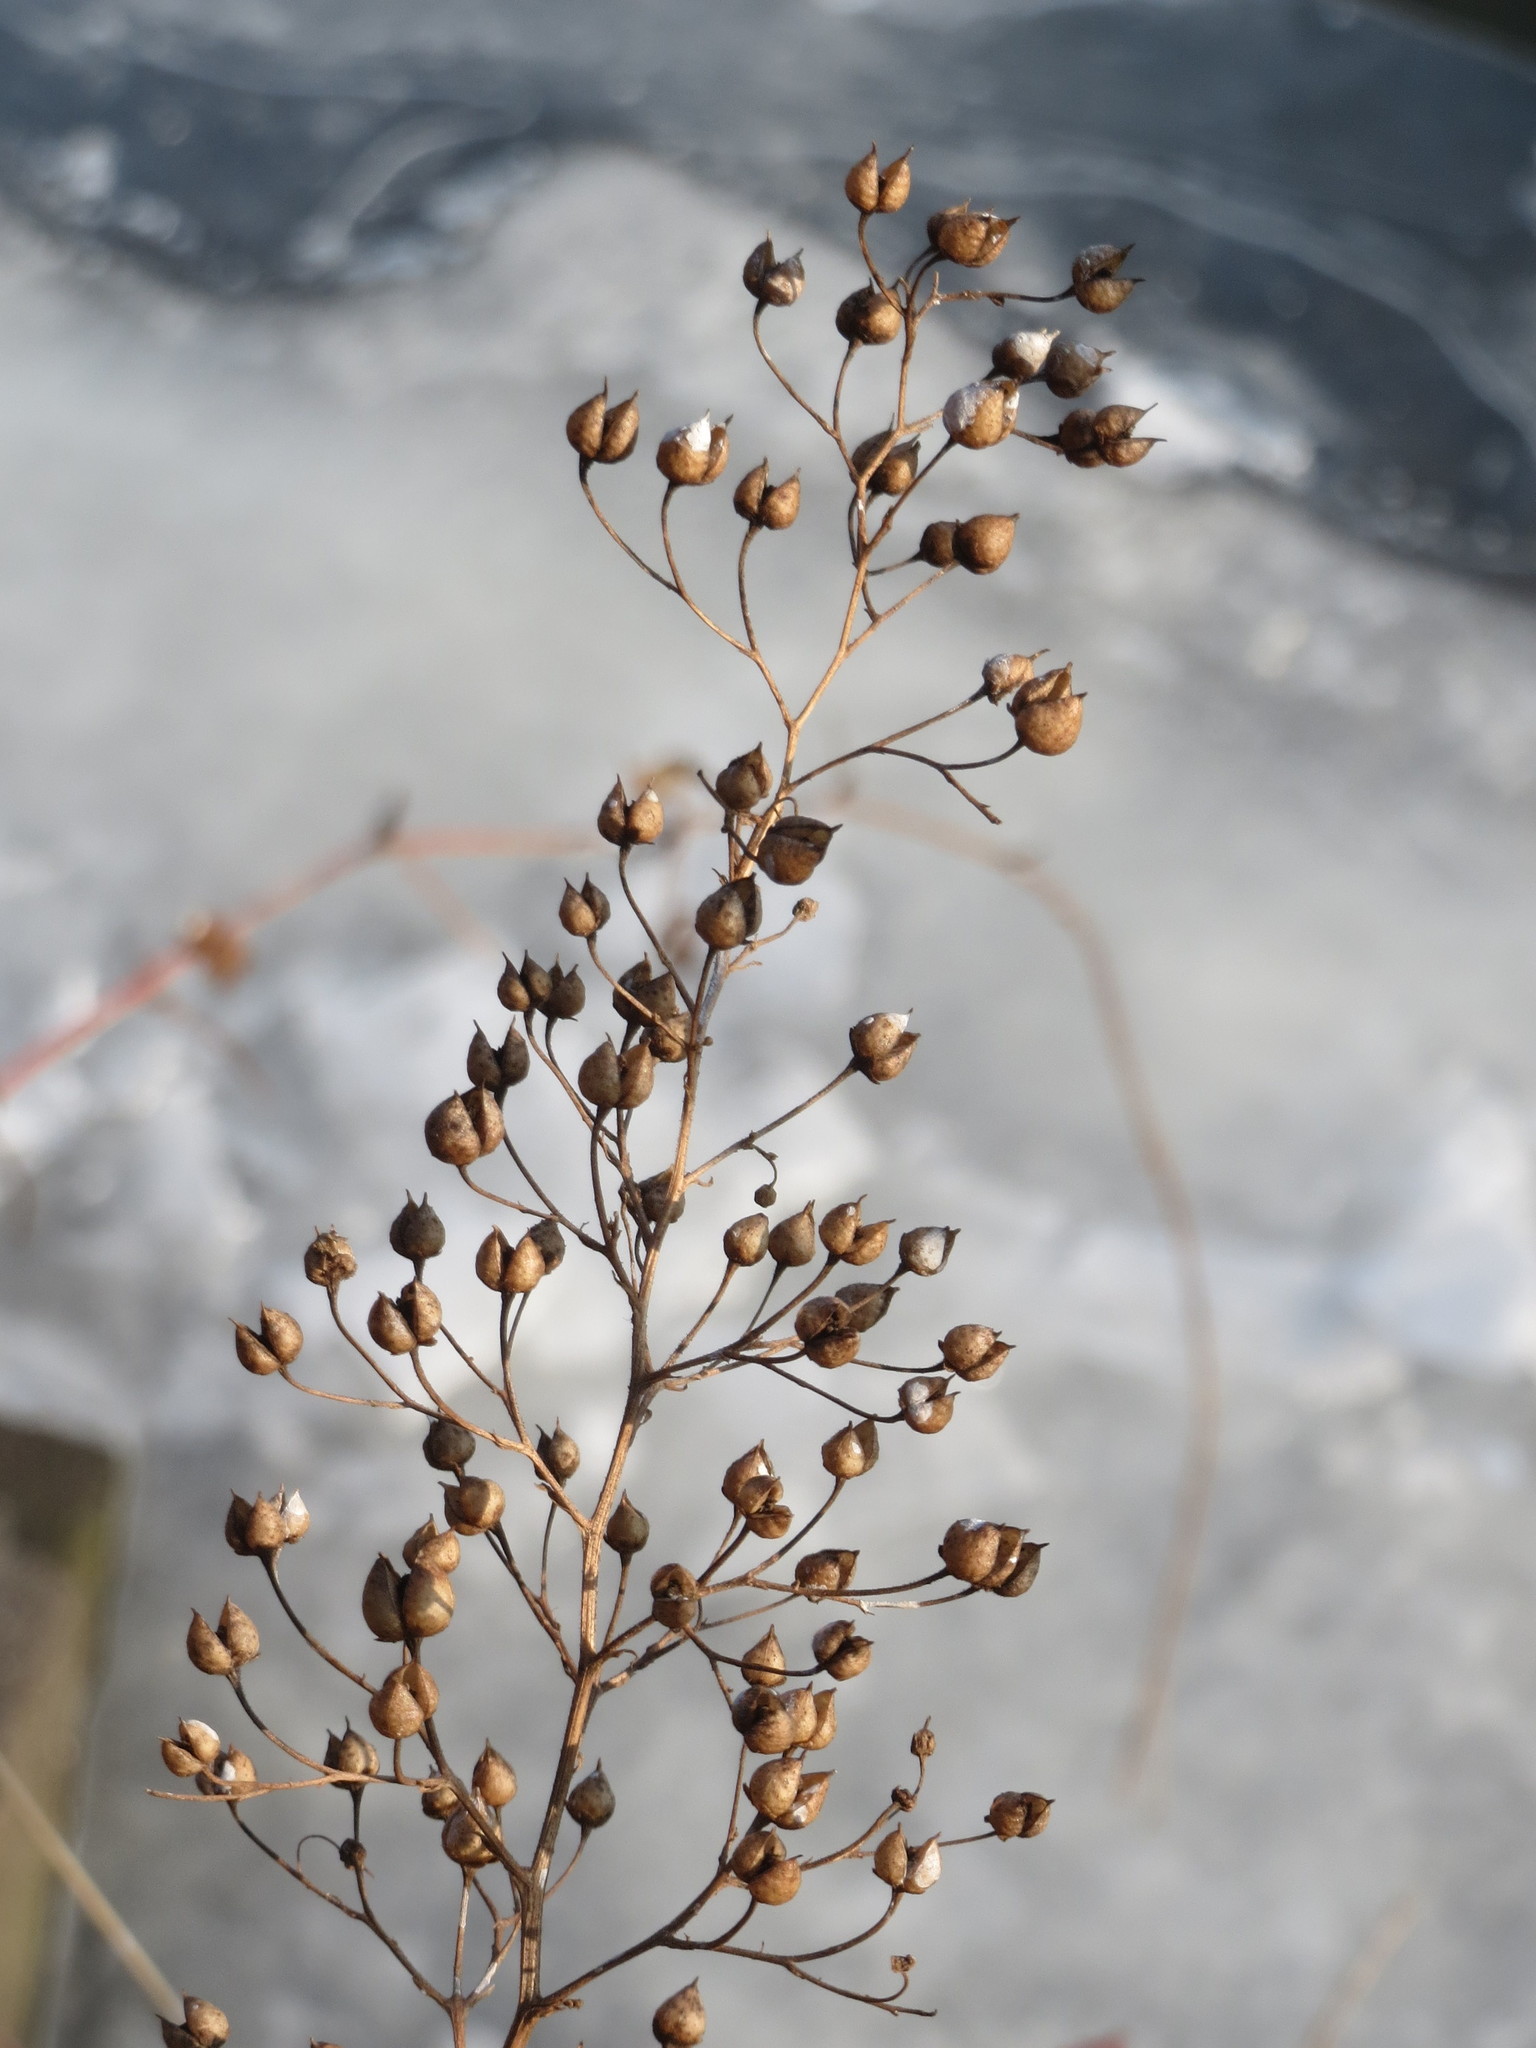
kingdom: Plantae
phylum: Tracheophyta
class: Magnoliopsida
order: Lamiales
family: Scrophulariaceae
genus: Scrophularia
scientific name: Scrophularia nodosa
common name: Common figwort
